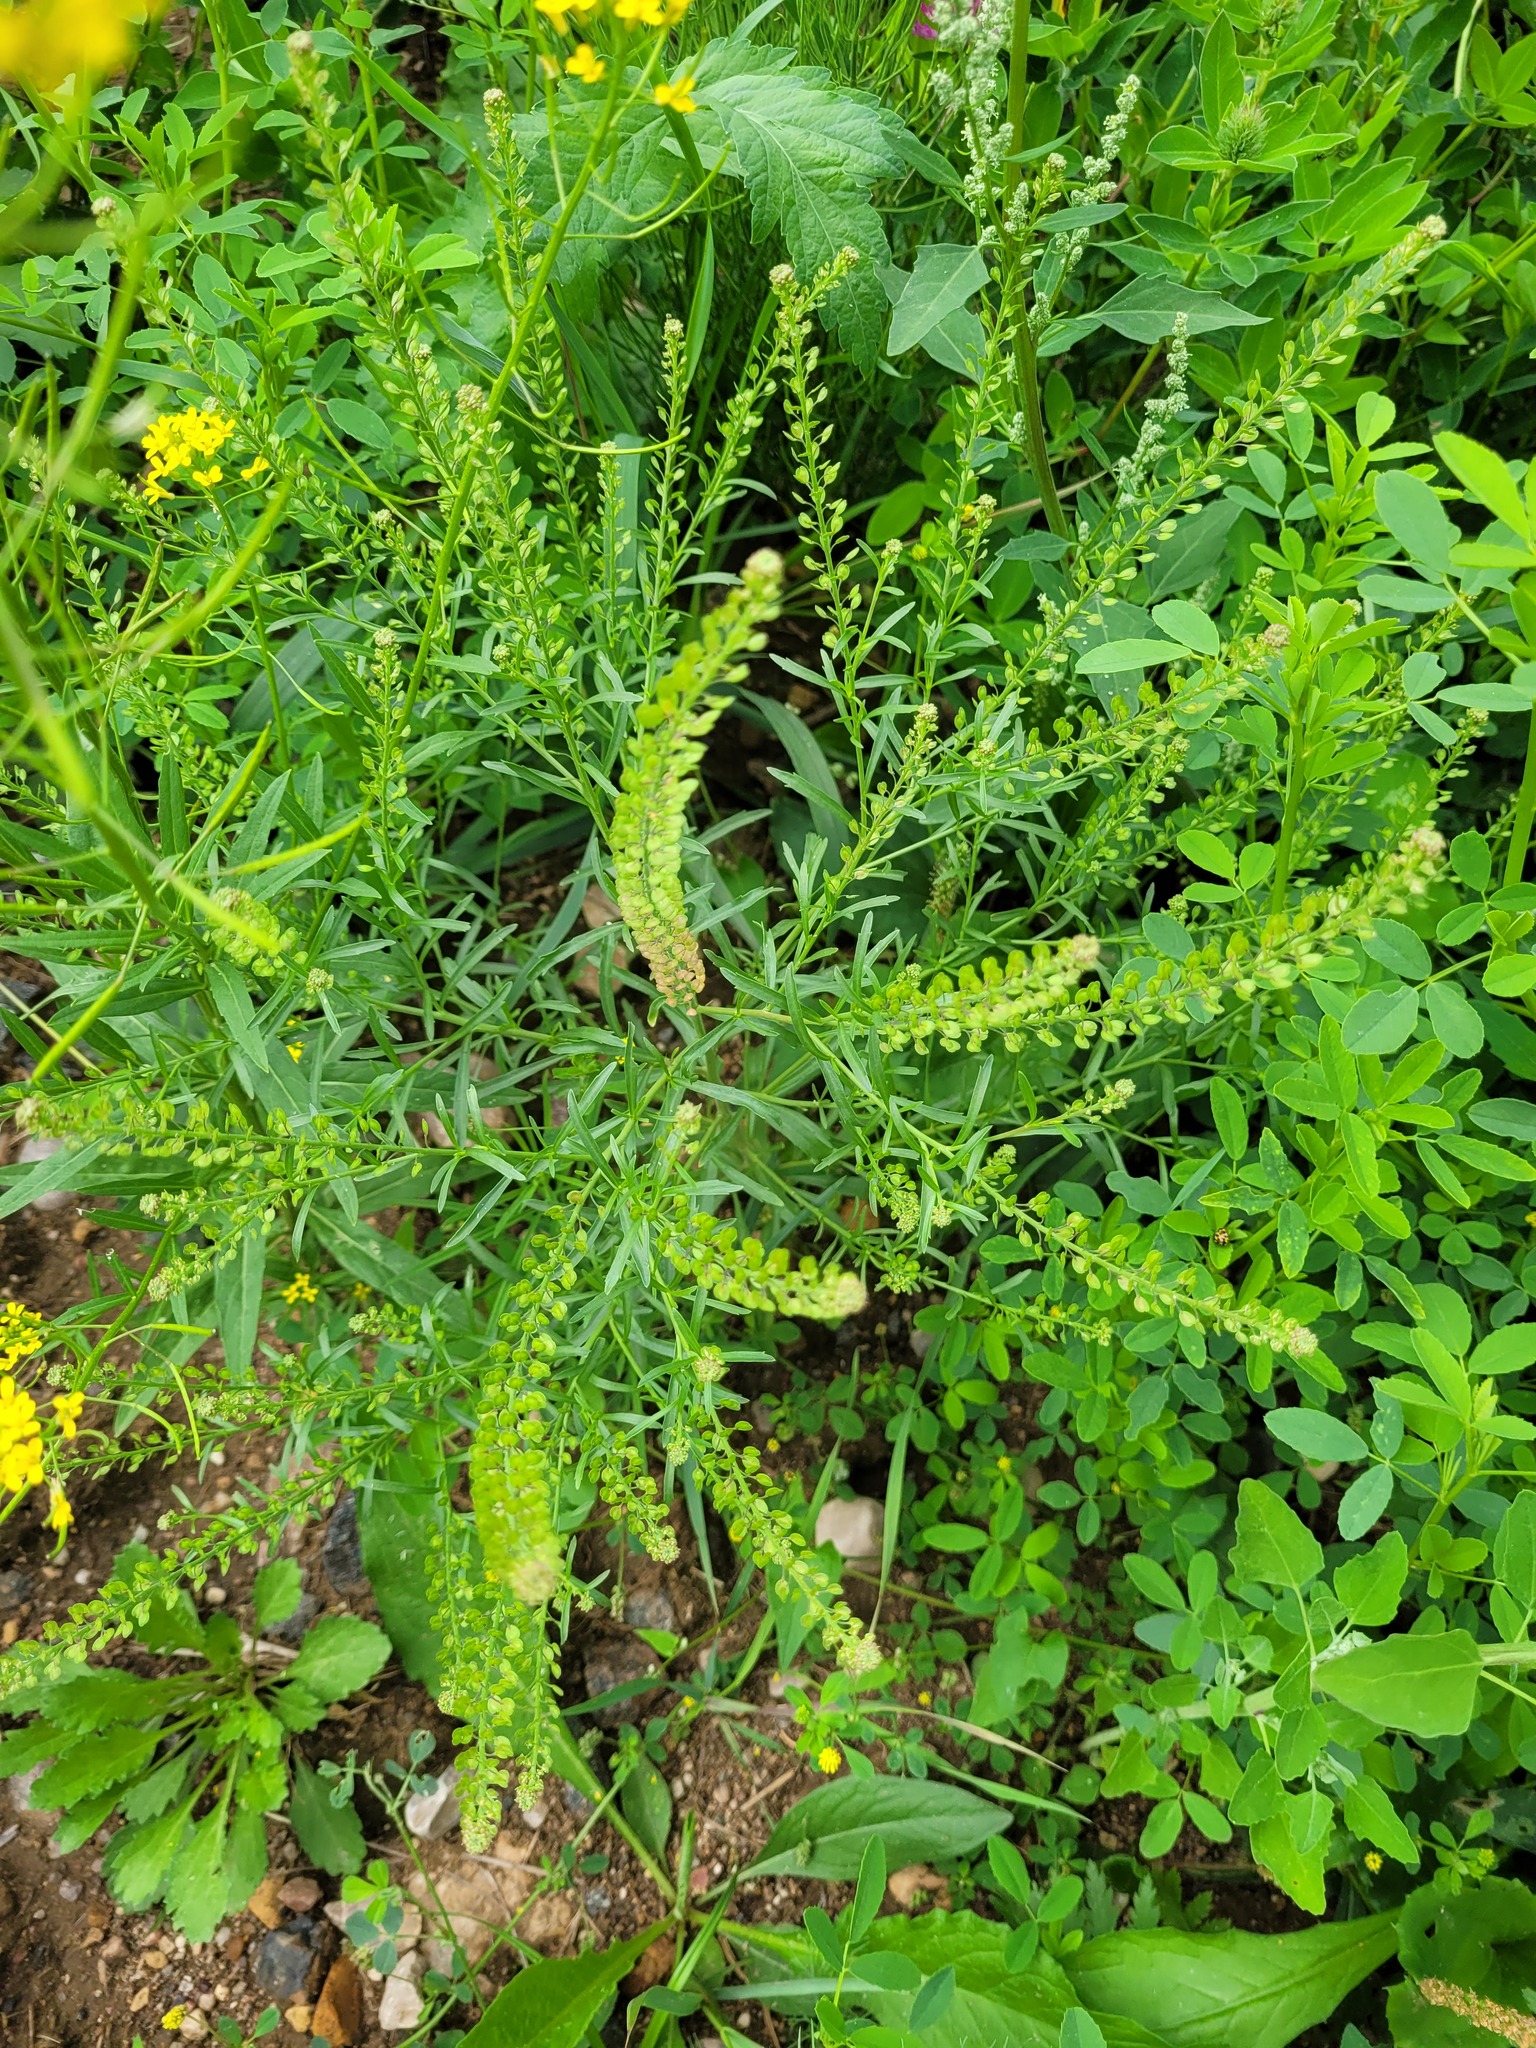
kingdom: Plantae
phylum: Tracheophyta
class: Magnoliopsida
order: Brassicales
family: Brassicaceae
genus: Lepidium
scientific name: Lepidium densiflorum
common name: Miner's pepperwort
